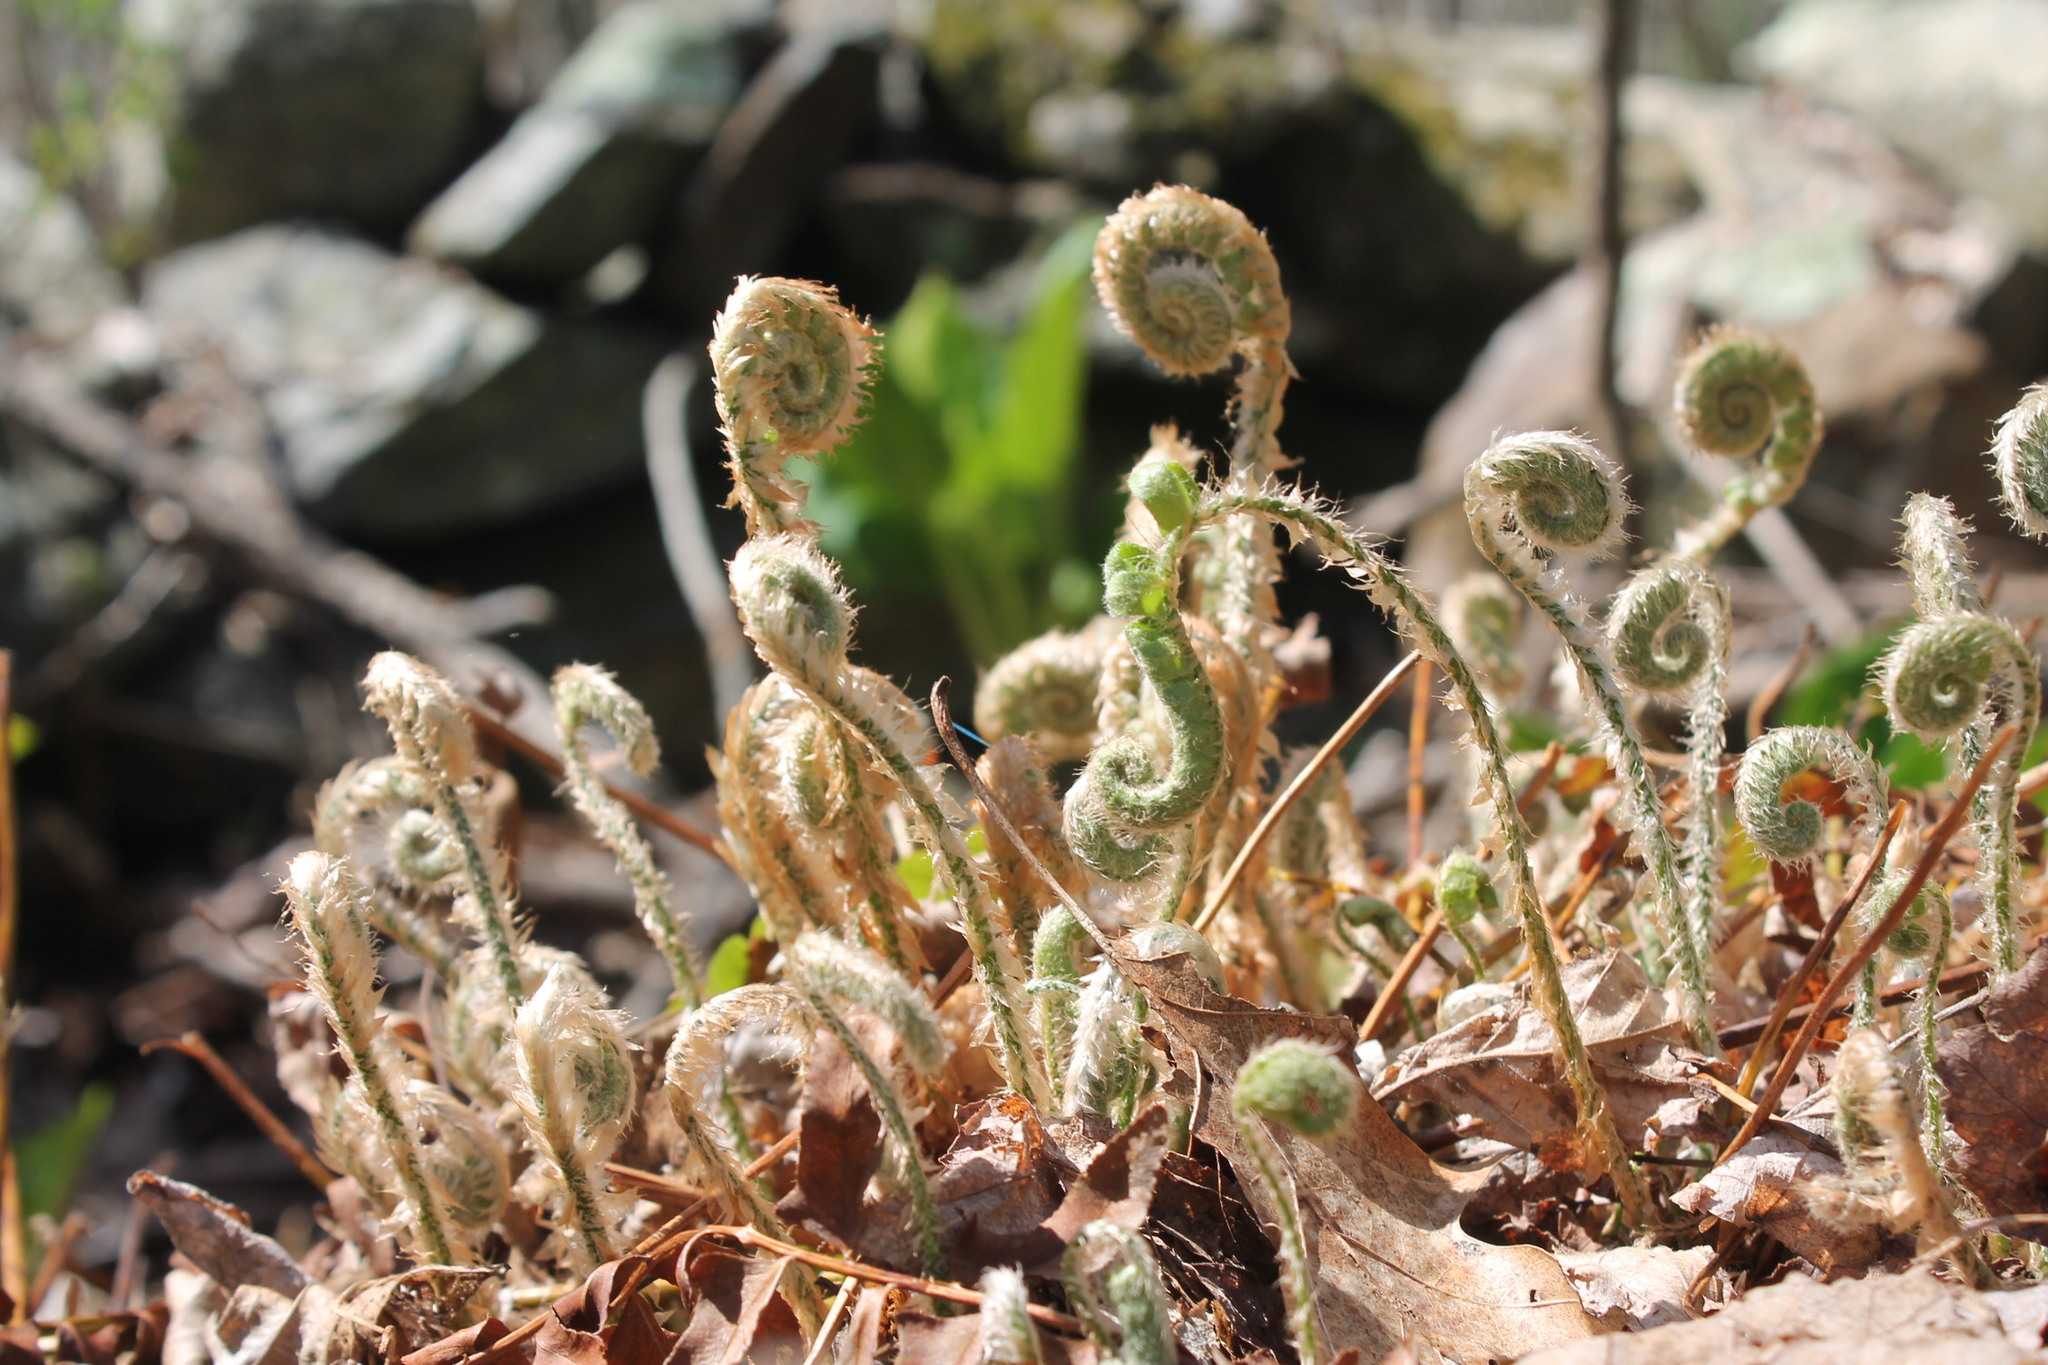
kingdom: Plantae
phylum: Tracheophyta
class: Polypodiopsida
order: Polypodiales
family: Dryopteridaceae
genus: Polystichum
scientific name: Polystichum acrostichoides
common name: Christmas fern
